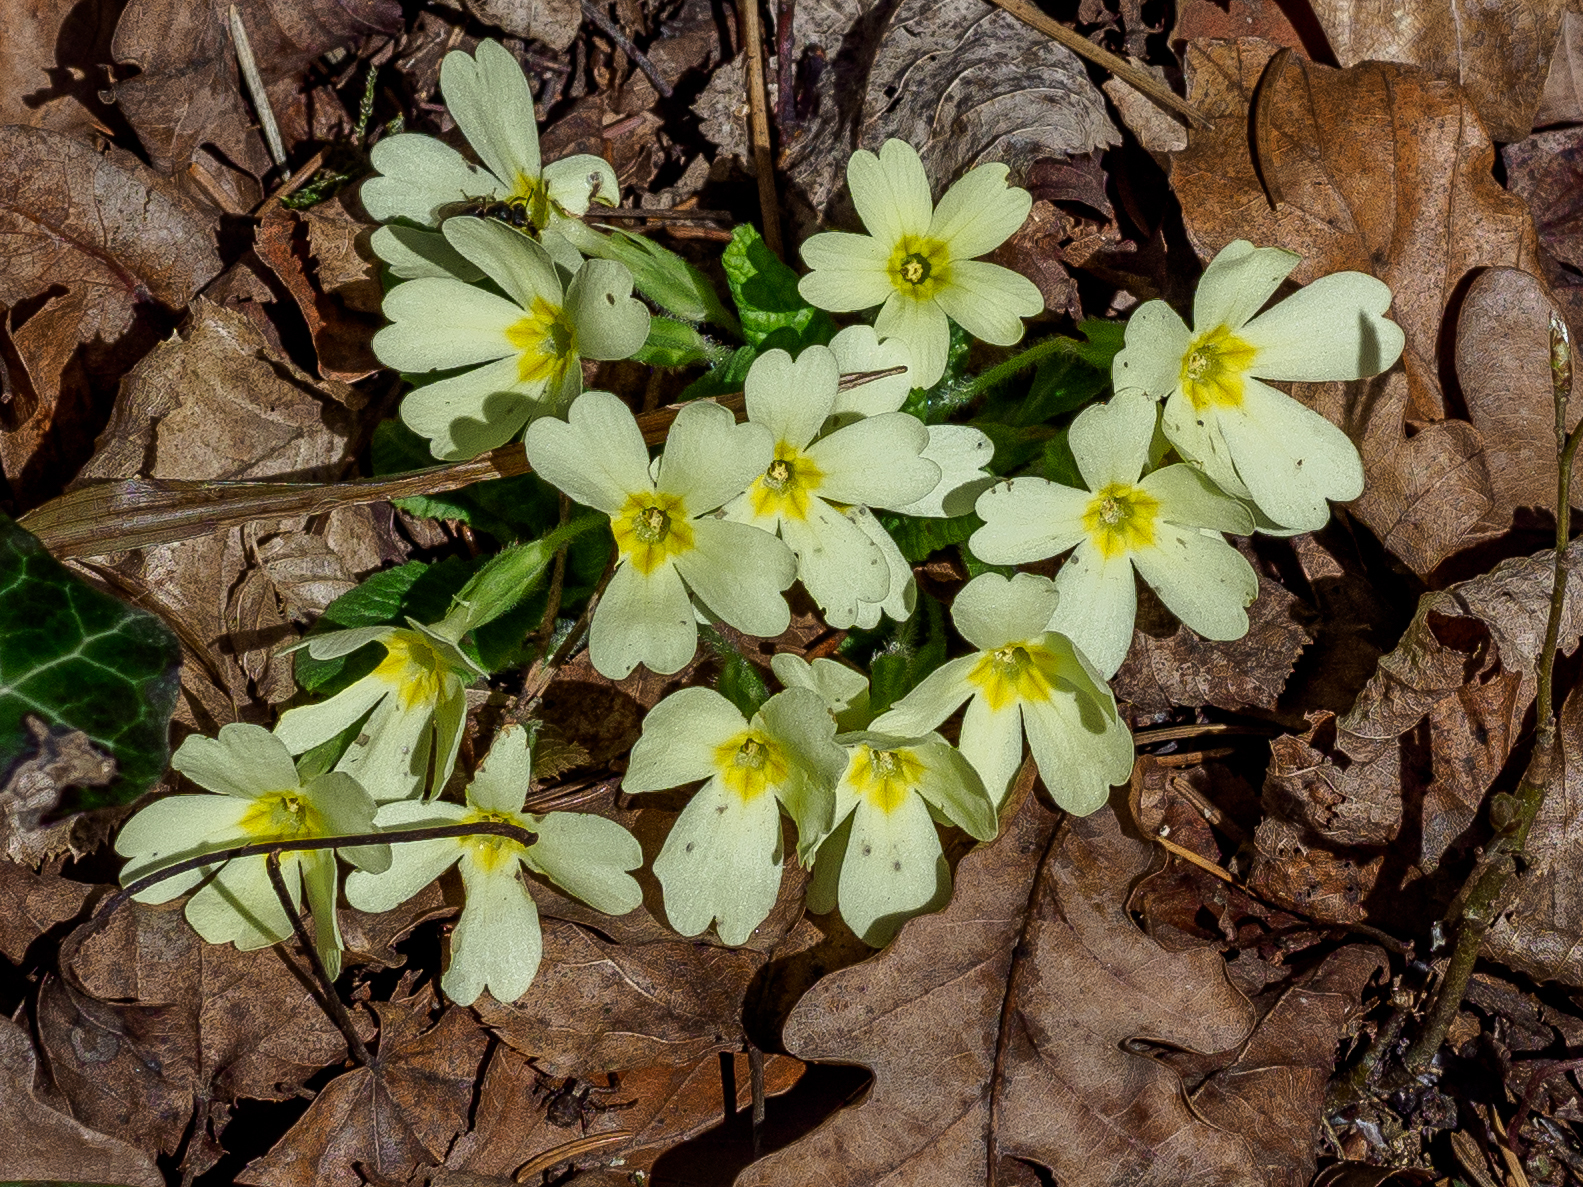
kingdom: Plantae
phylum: Tracheophyta
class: Magnoliopsida
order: Ericales
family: Primulaceae
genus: Primula
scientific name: Primula vulgaris
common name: Primrose
